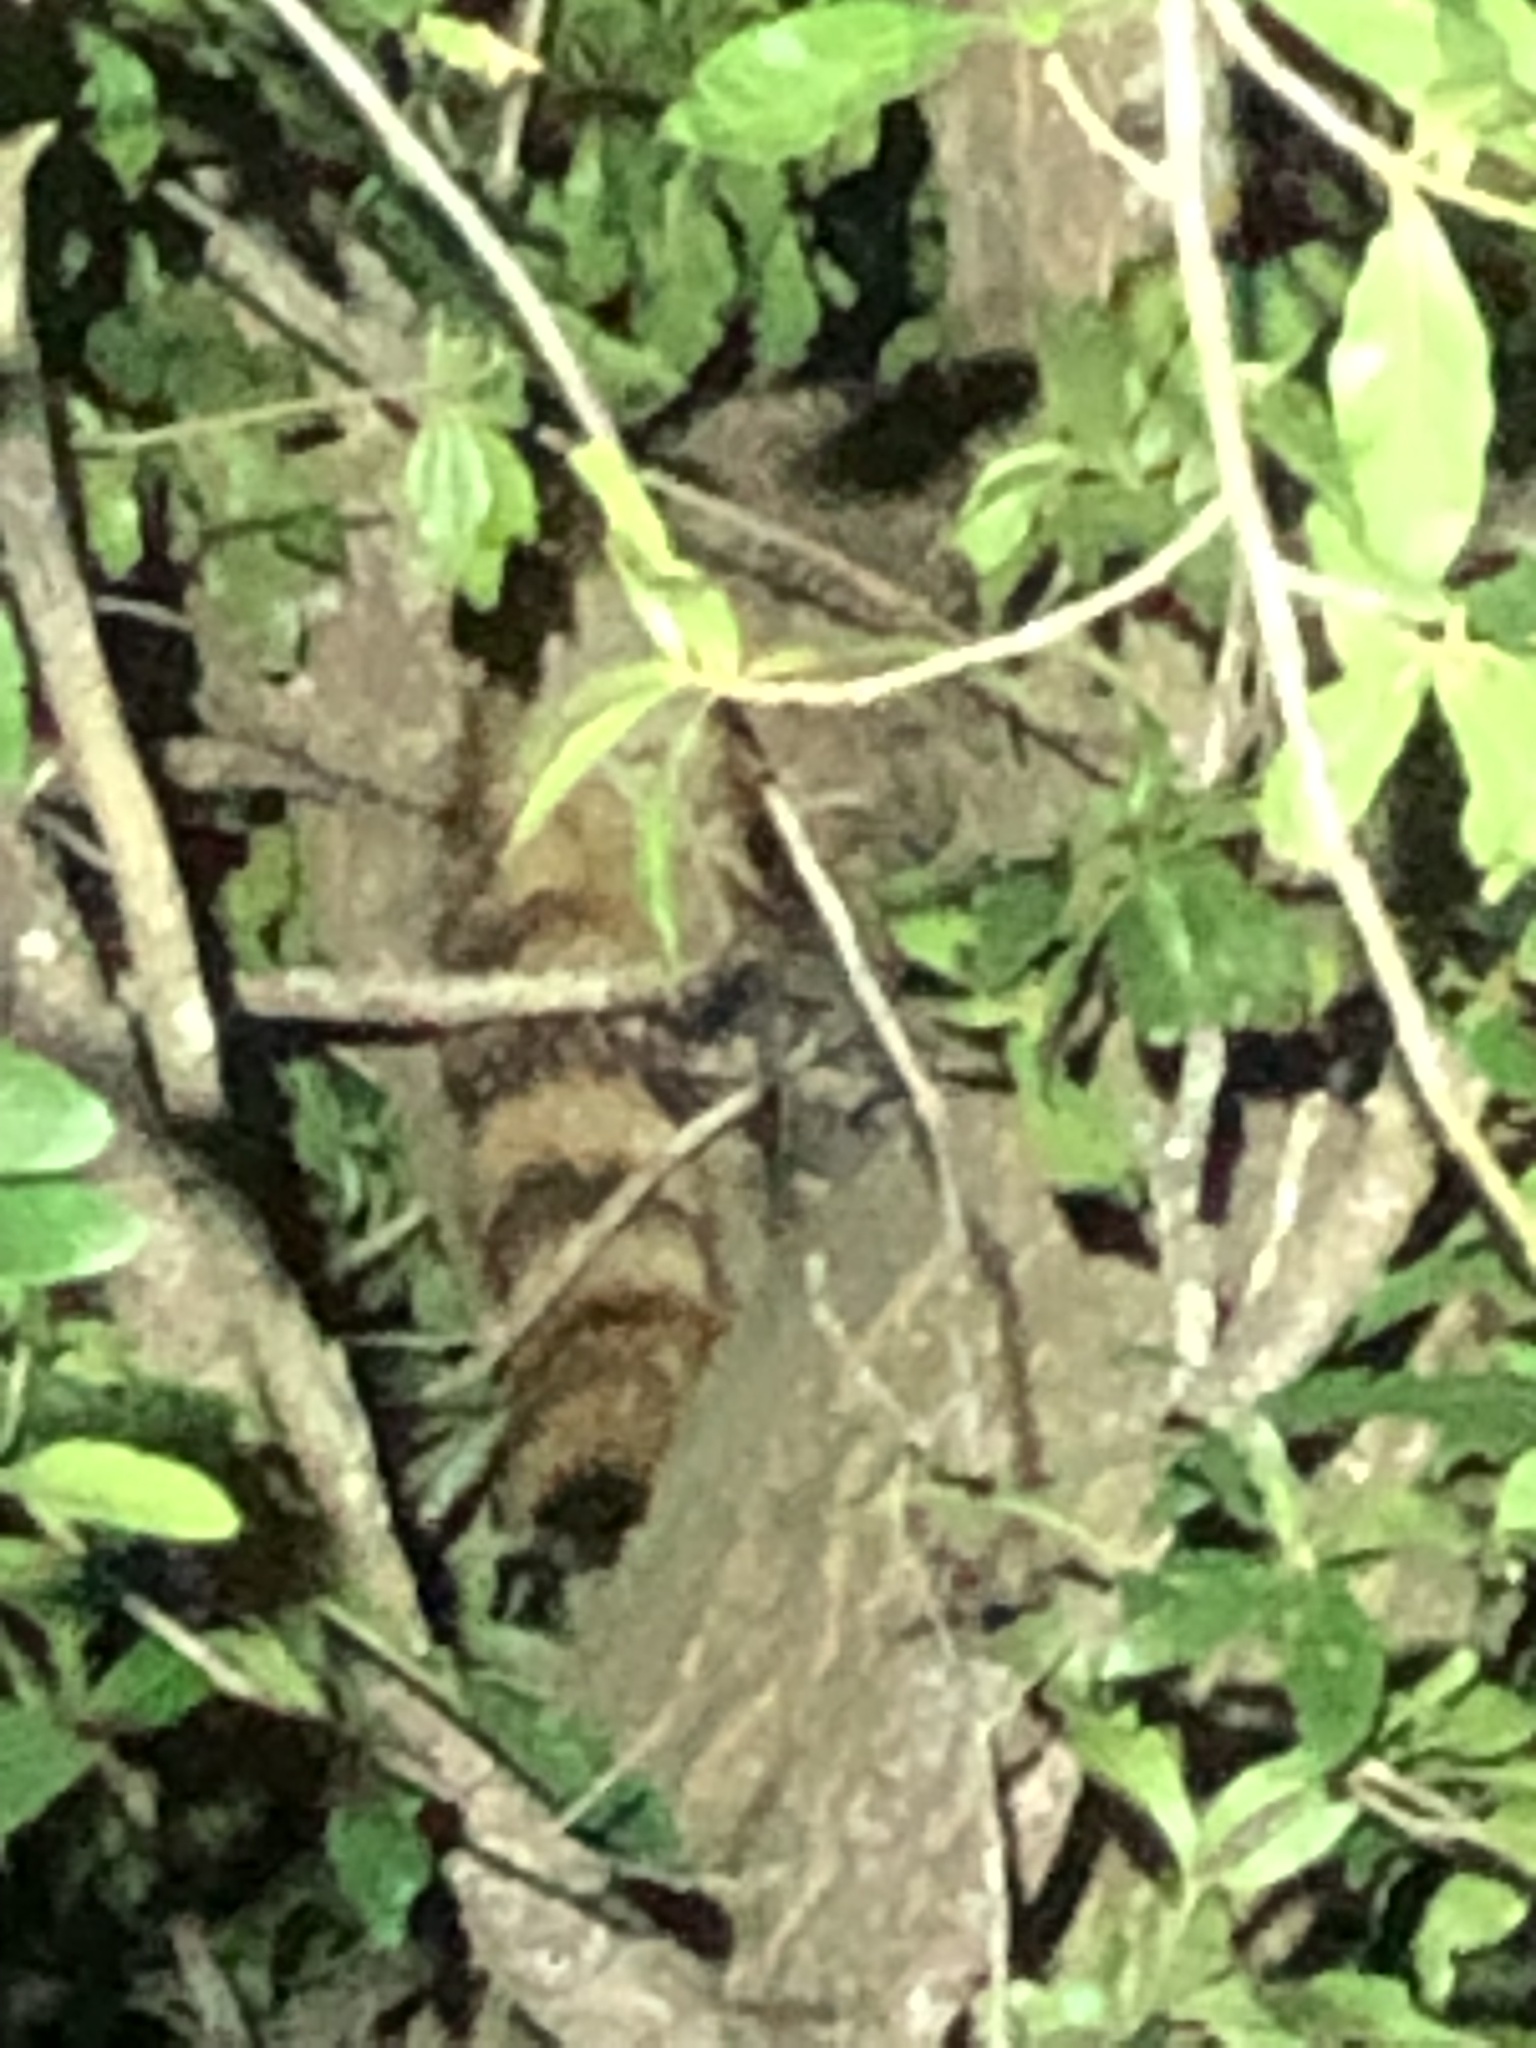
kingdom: Animalia
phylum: Chordata
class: Mammalia
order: Carnivora
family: Procyonidae
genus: Procyon
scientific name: Procyon lotor
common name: Raccoon
